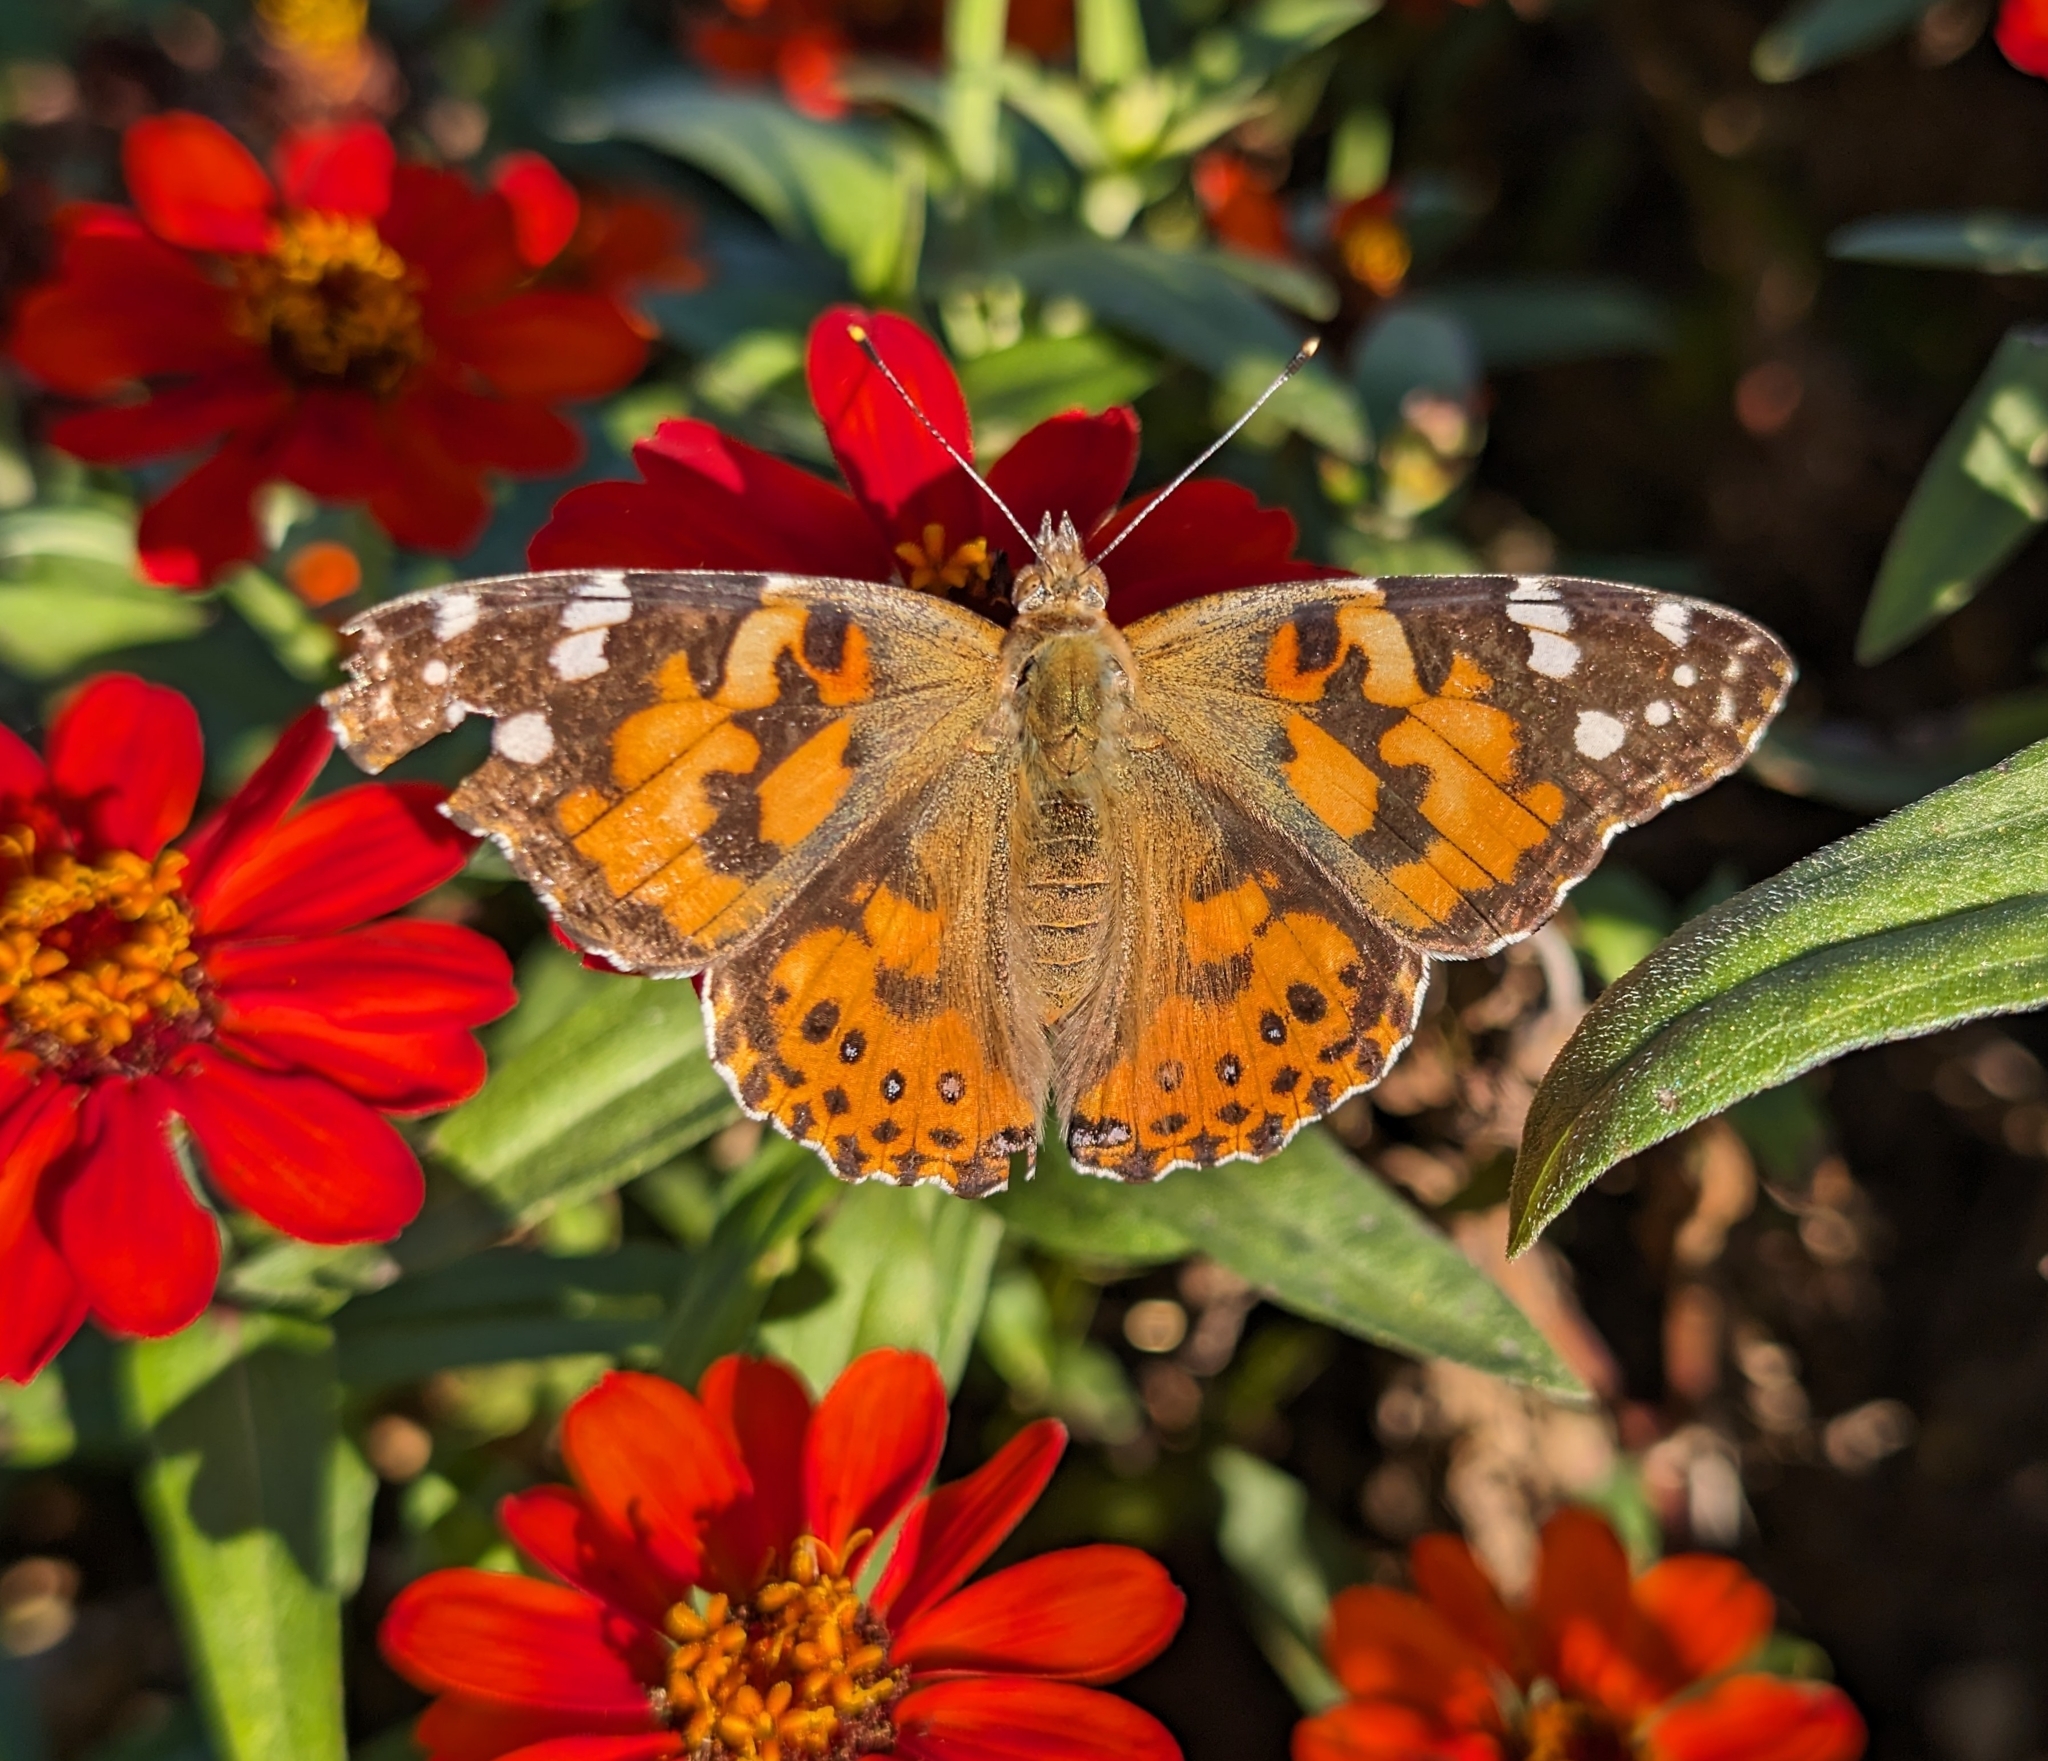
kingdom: Animalia
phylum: Arthropoda
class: Insecta
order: Lepidoptera
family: Nymphalidae
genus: Vanessa
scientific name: Vanessa cardui
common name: Painted lady
